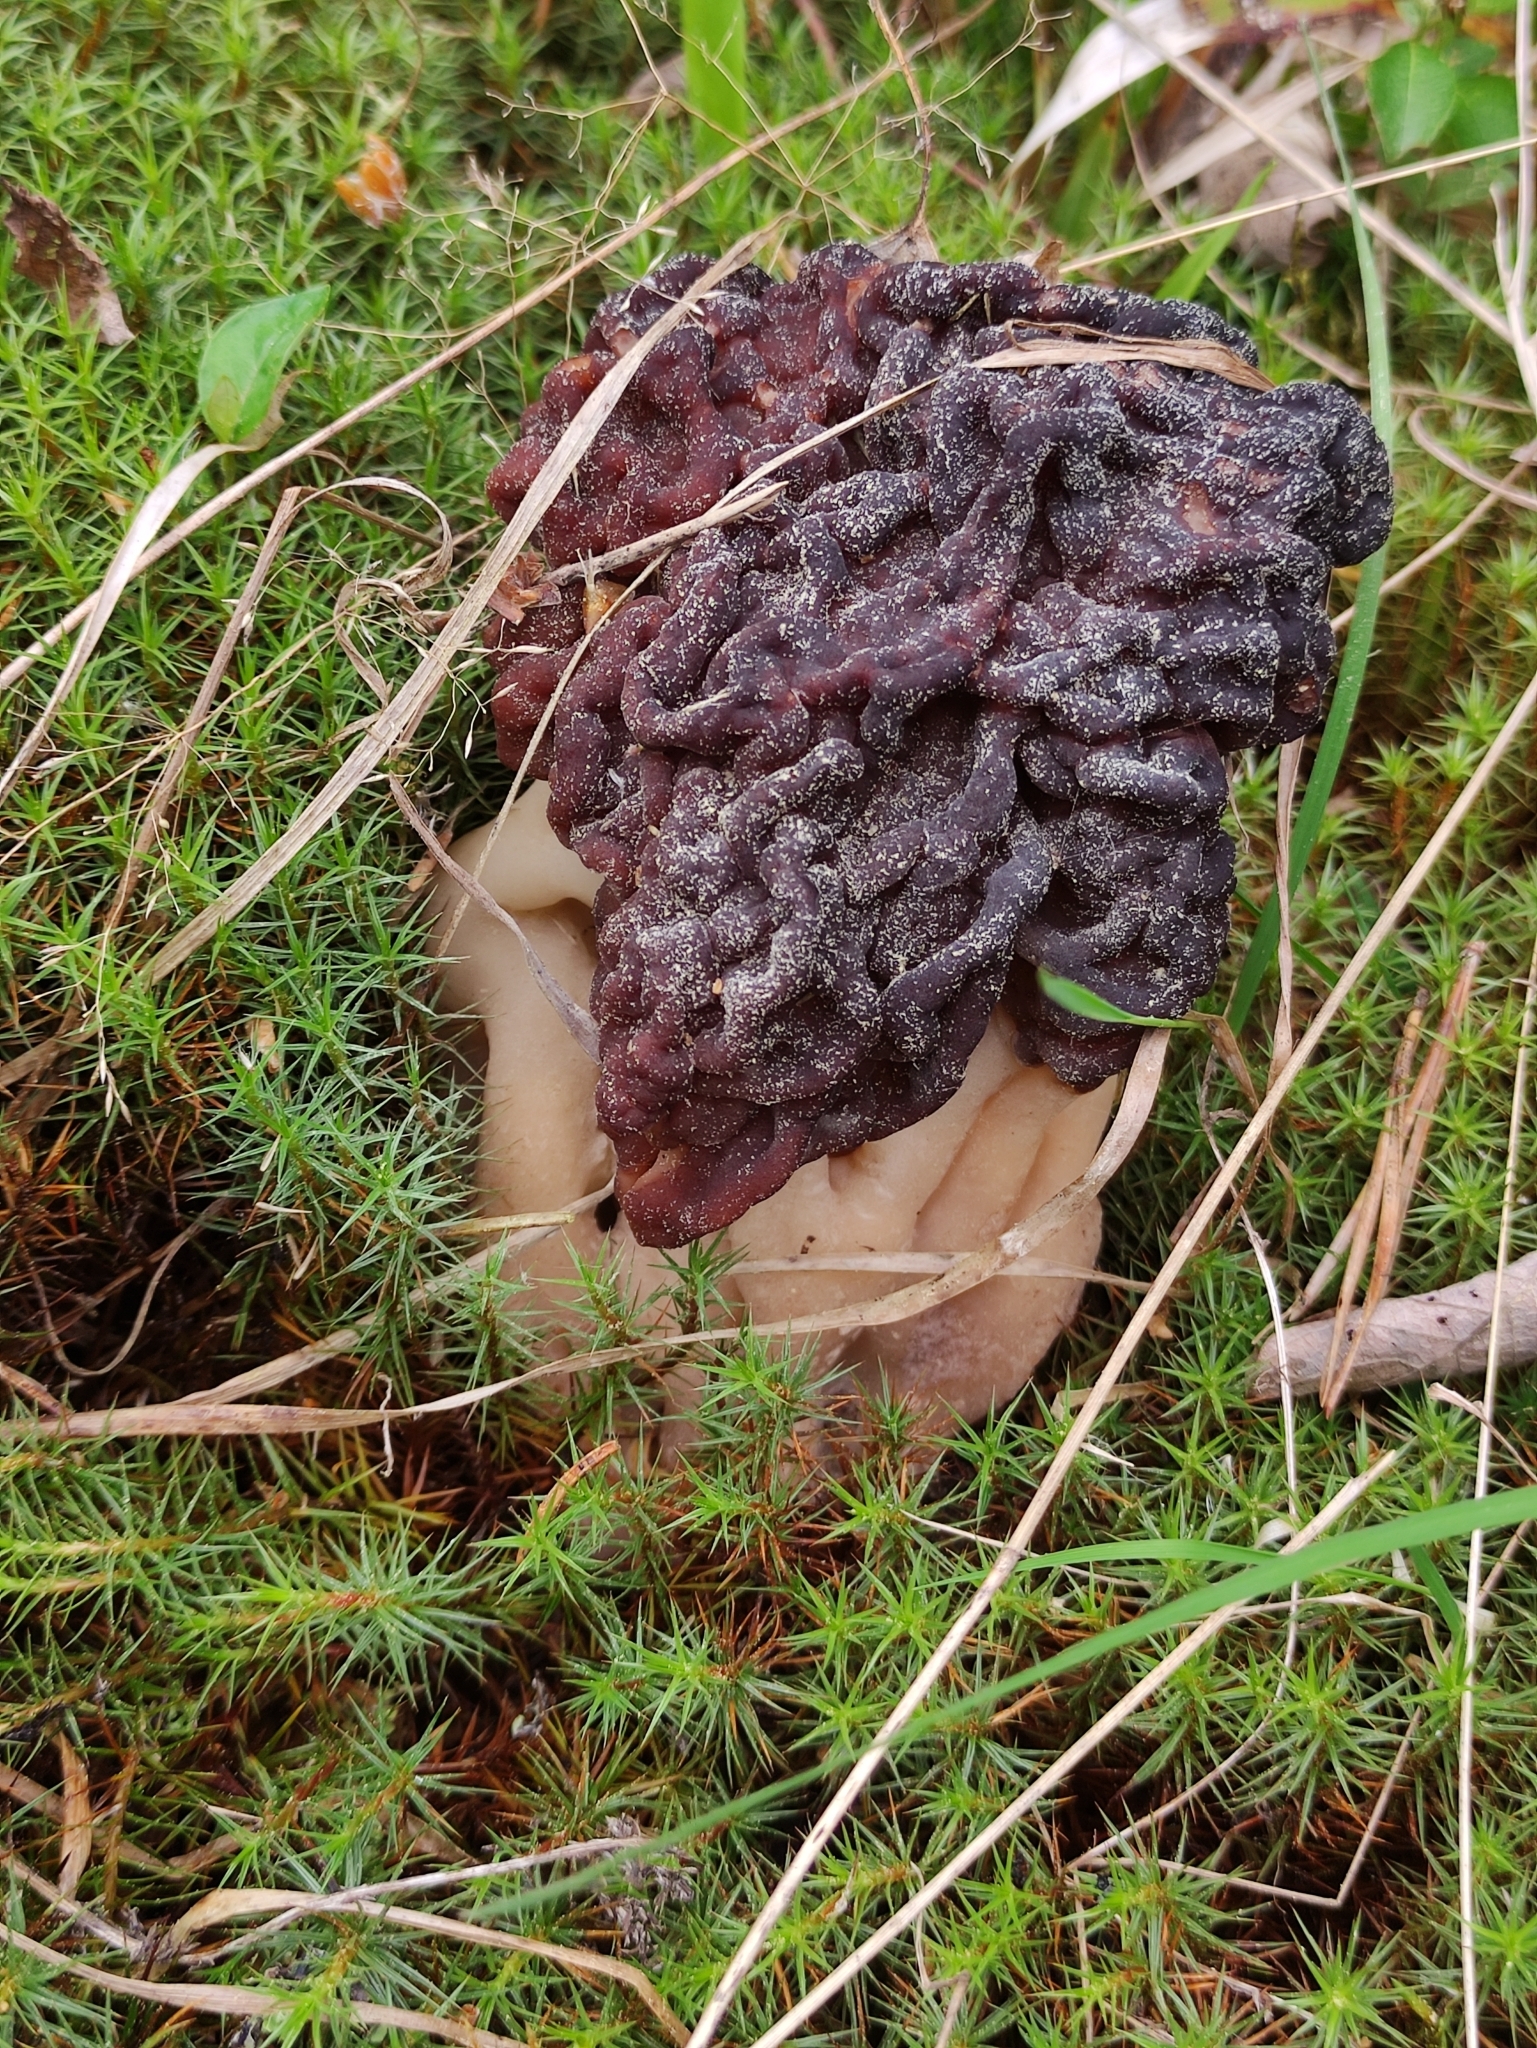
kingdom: Fungi
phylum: Ascomycota
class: Pezizomycetes
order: Pezizales
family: Discinaceae
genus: Gyromitra
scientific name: Gyromitra esculenta
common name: False morel
